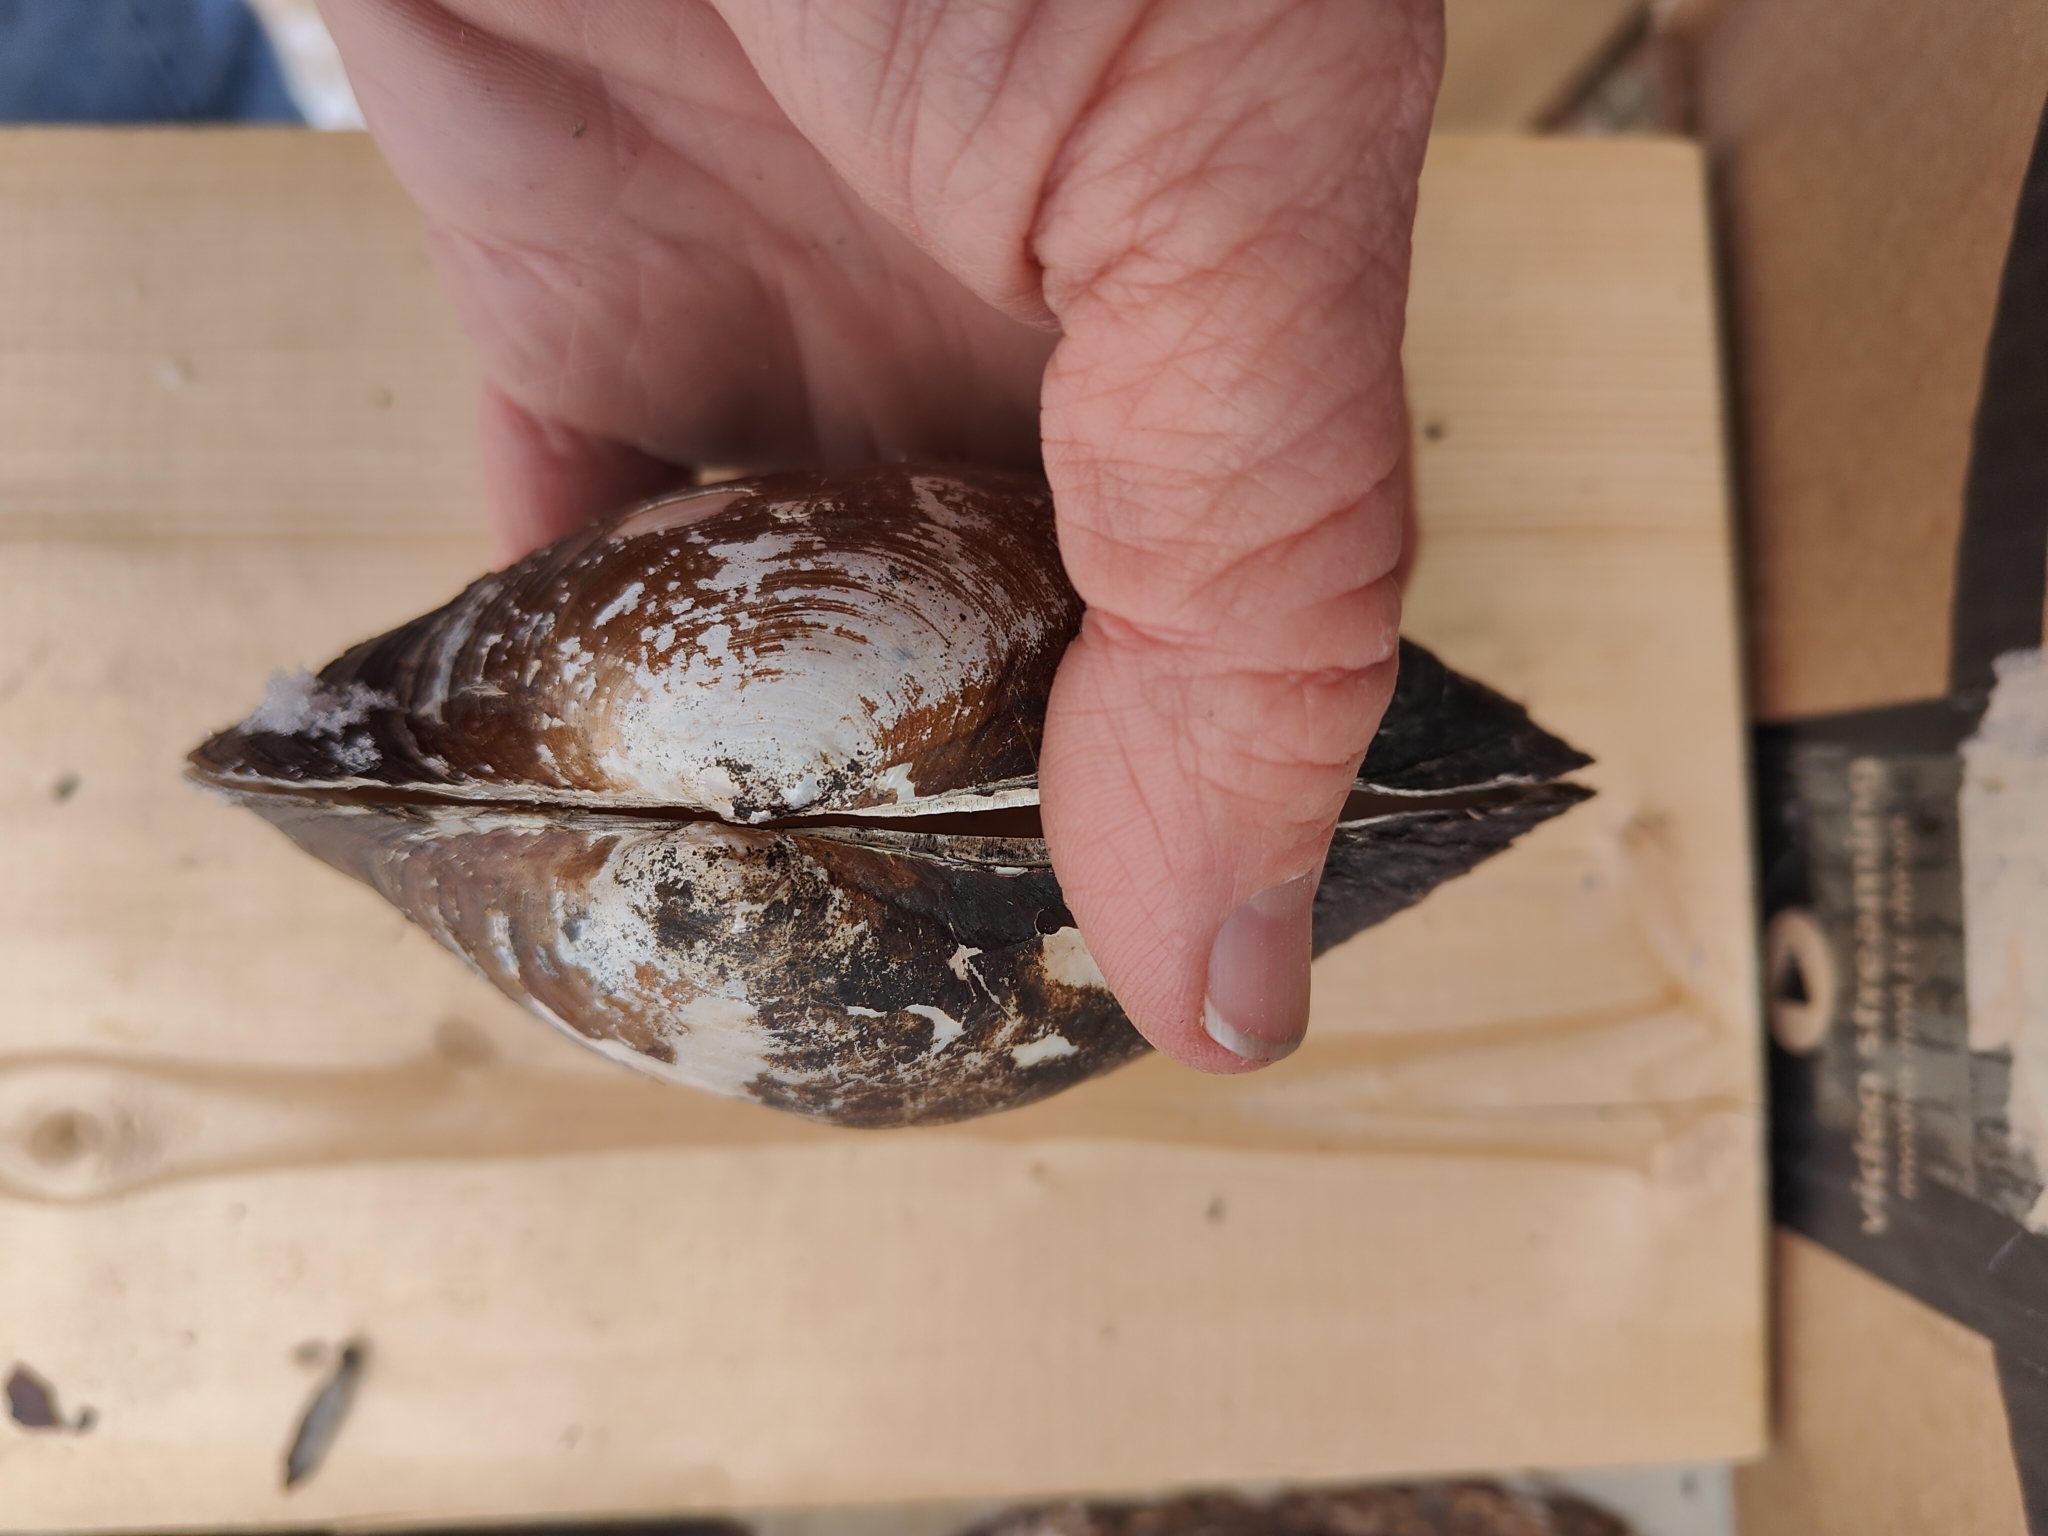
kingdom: Animalia
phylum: Mollusca
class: Bivalvia
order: Unionida
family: Unionidae
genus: Pyganodon
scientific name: Pyganodon grandis
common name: Giant floater
